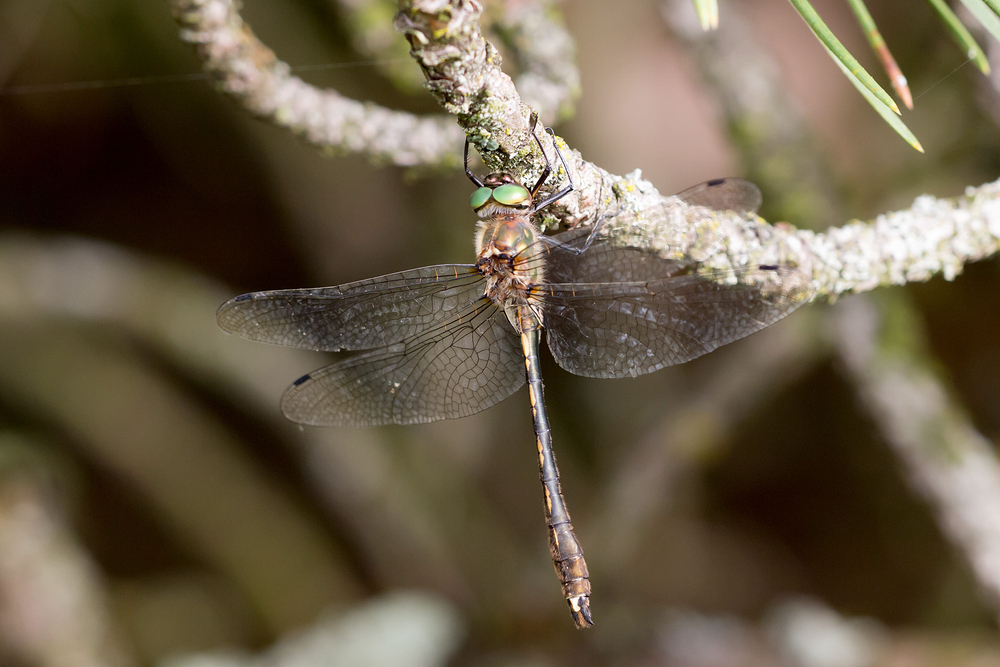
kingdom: Animalia
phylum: Arthropoda
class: Insecta
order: Odonata
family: Corduliidae
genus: Oxygastra
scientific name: Oxygastra curtisii
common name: Orange-spotted emerald
